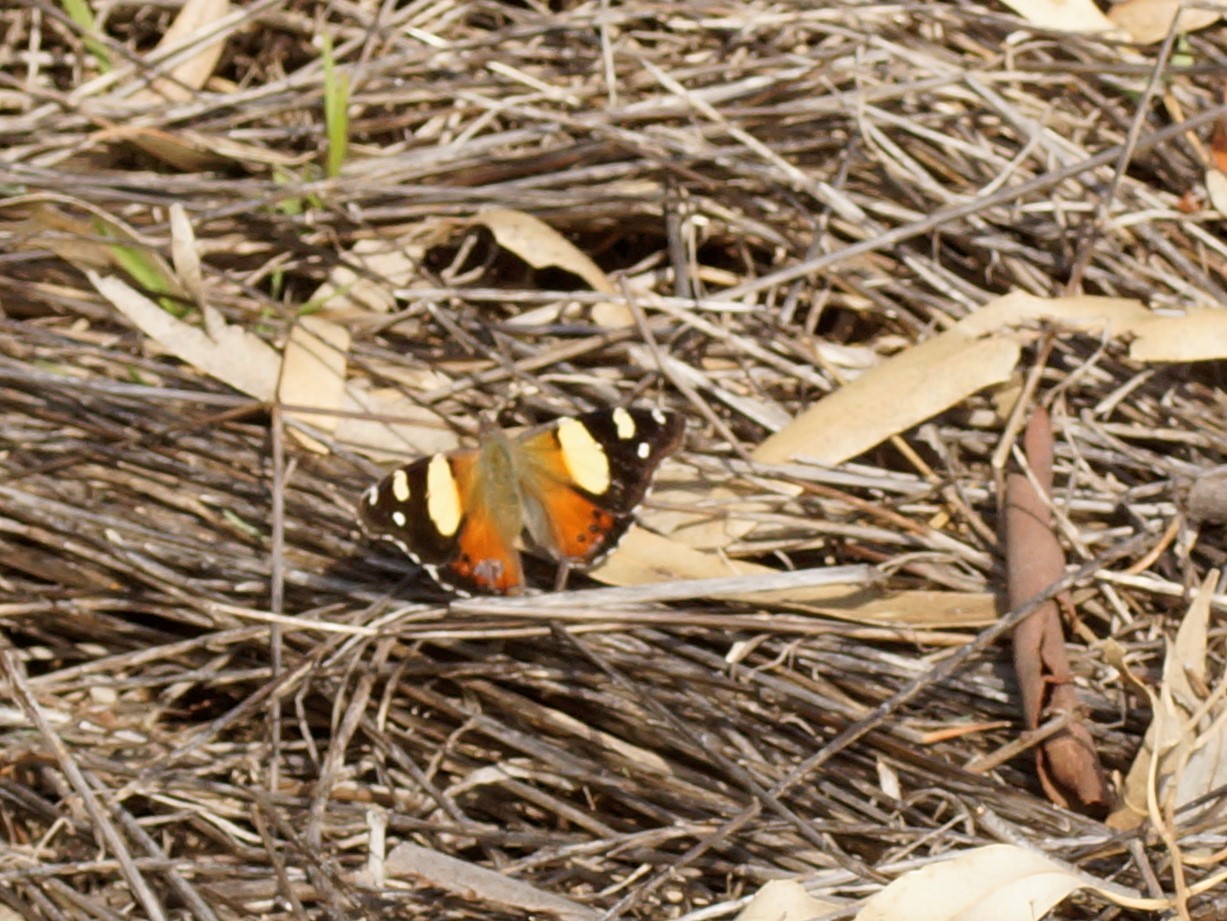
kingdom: Animalia
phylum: Arthropoda
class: Insecta
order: Lepidoptera
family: Nymphalidae
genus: Vanessa
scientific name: Vanessa itea
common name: Yellow admiral
